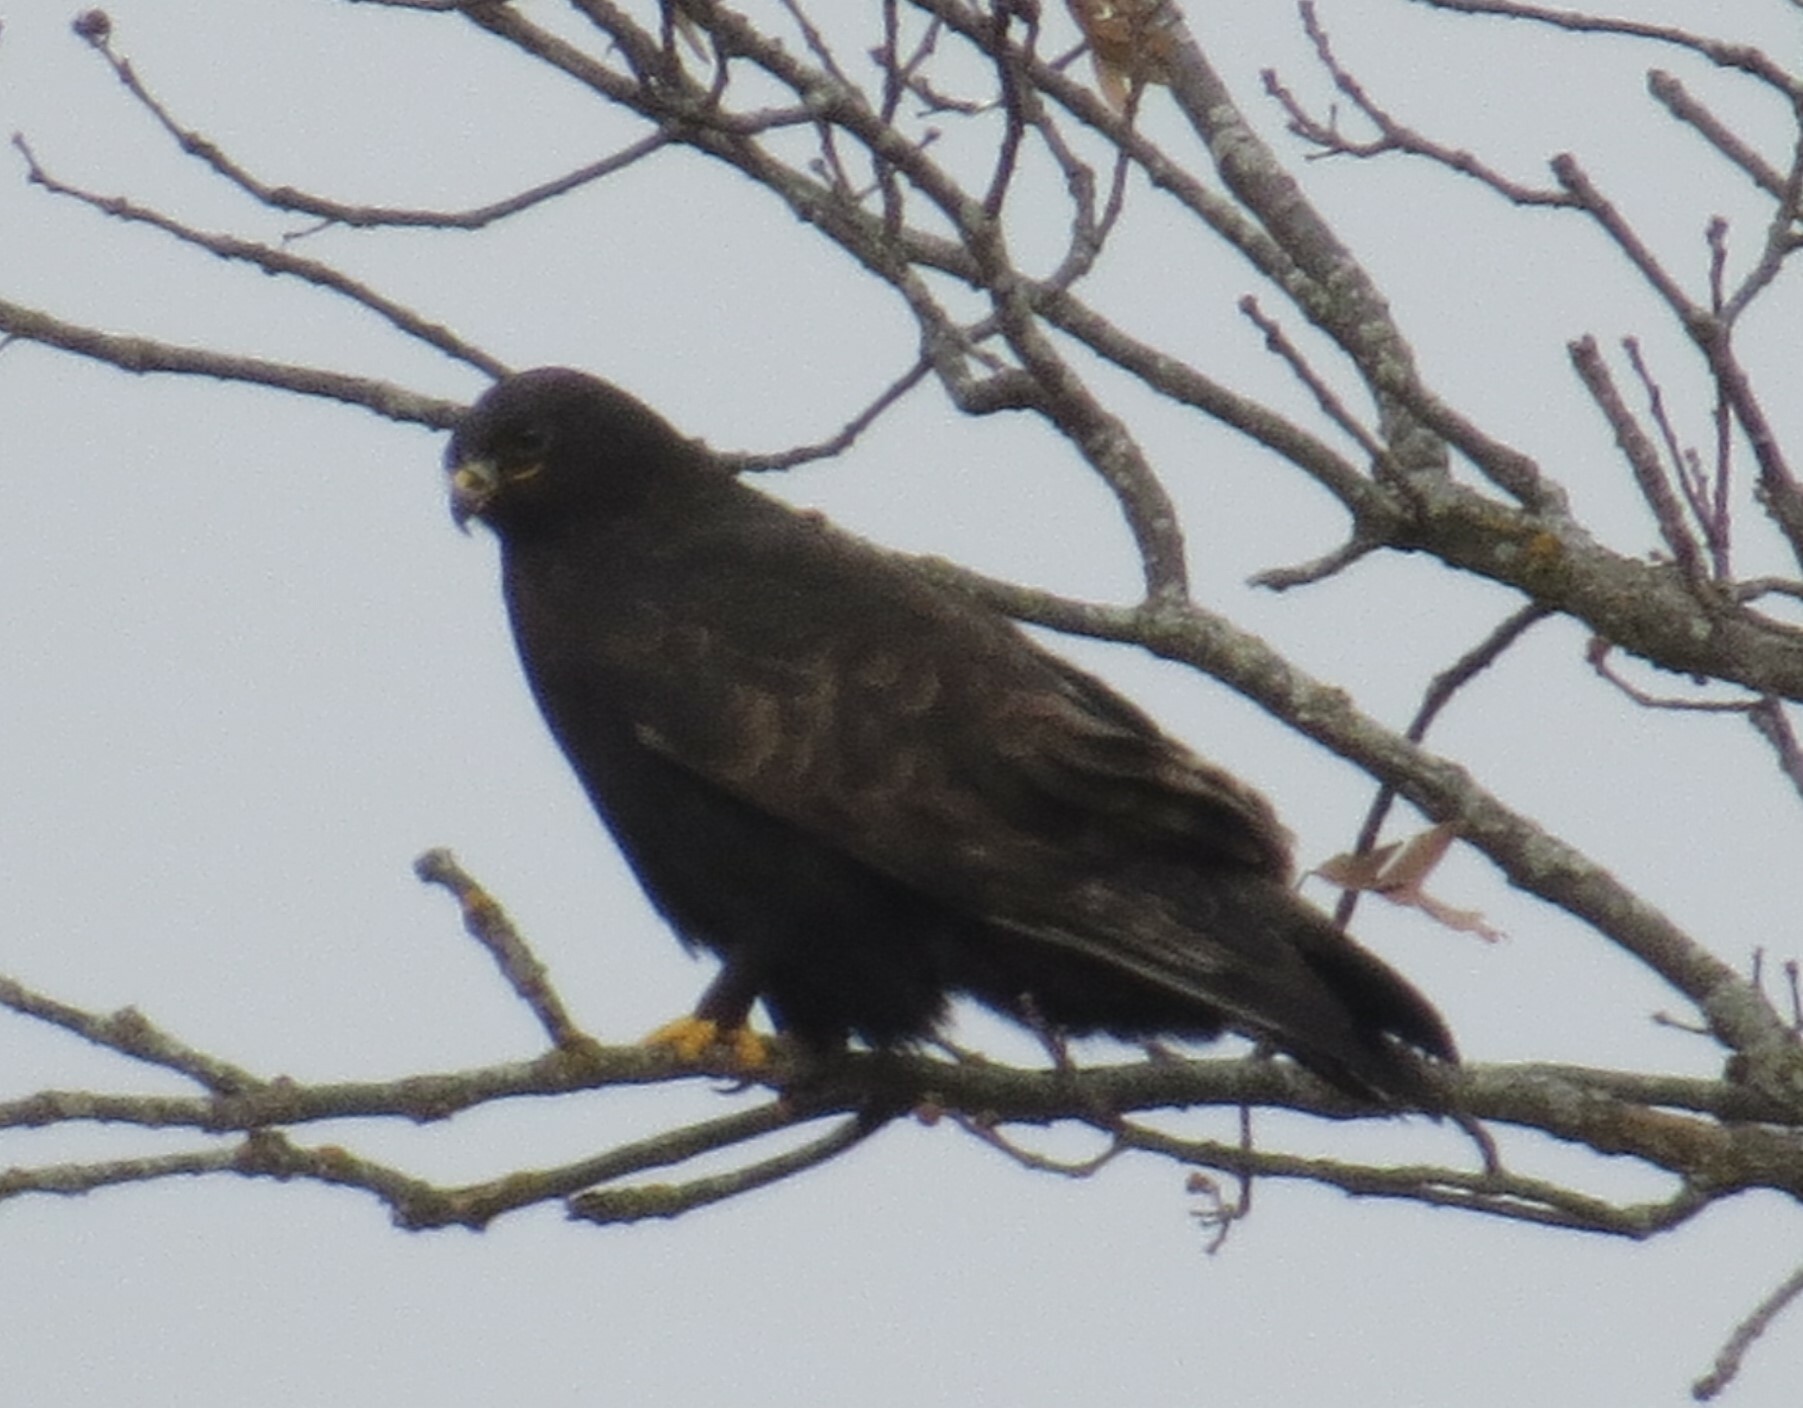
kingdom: Animalia
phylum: Chordata
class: Aves
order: Accipitriformes
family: Accipitridae
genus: Buteo
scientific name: Buteo lagopus
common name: Rough-legged buzzard
